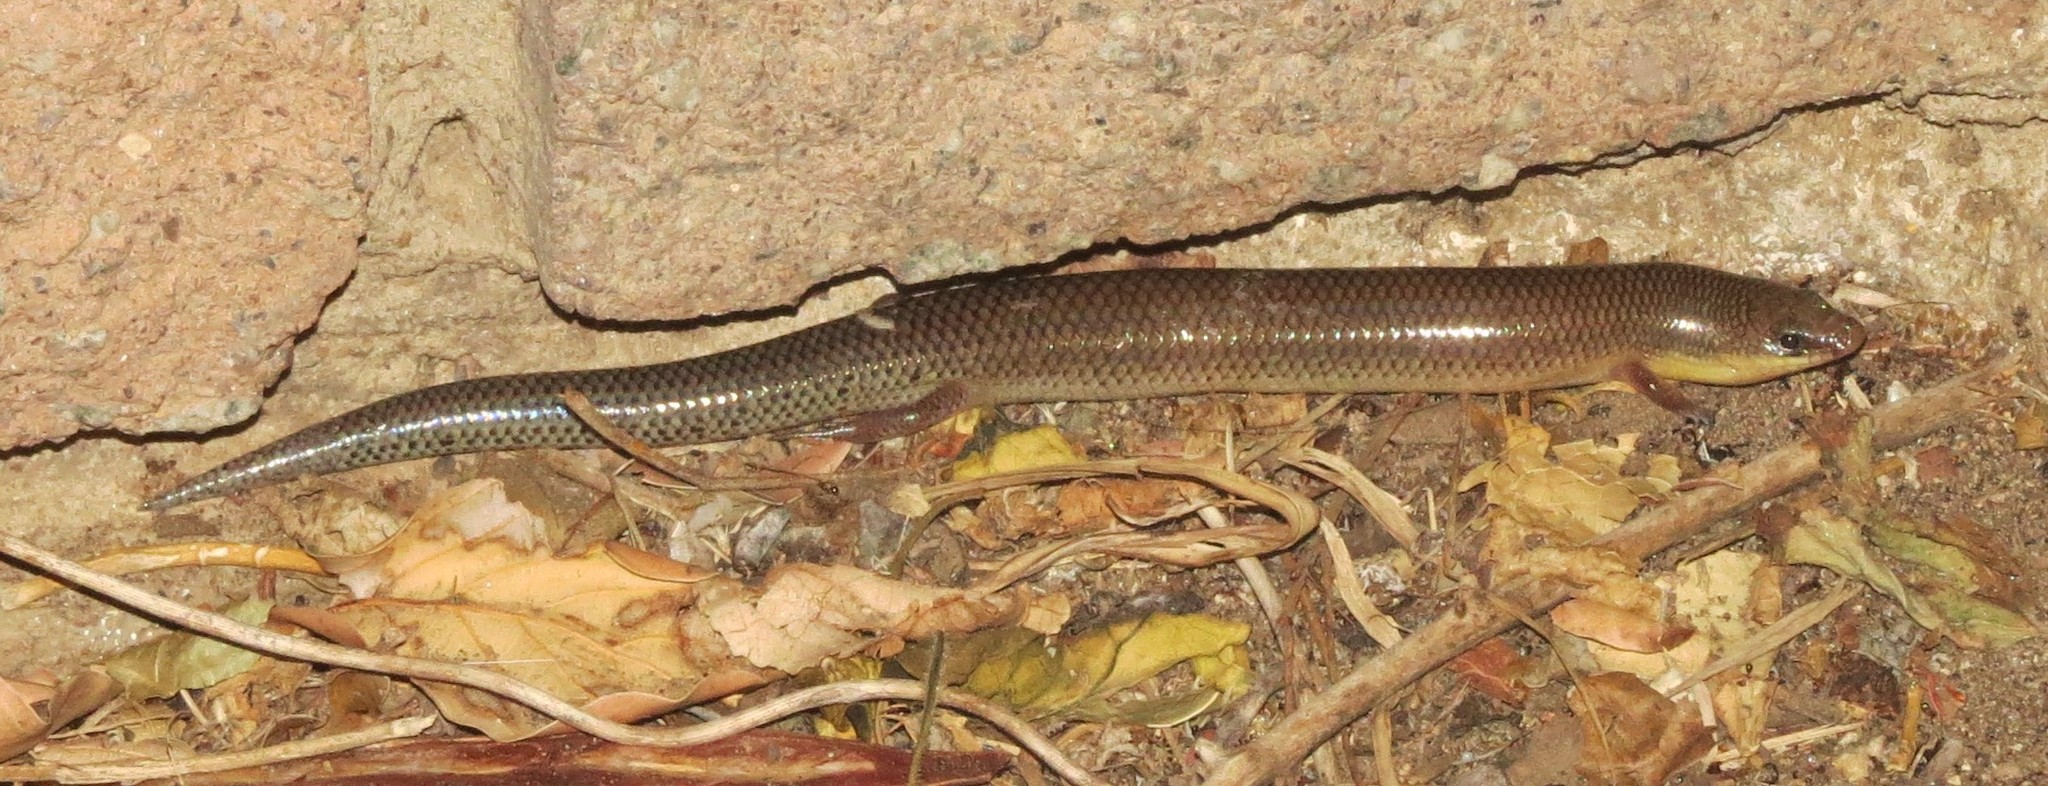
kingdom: Animalia
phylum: Chordata
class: Squamata
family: Scincidae
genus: Mochlus
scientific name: Mochlus sundevallii
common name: Peters' eyelid skink
